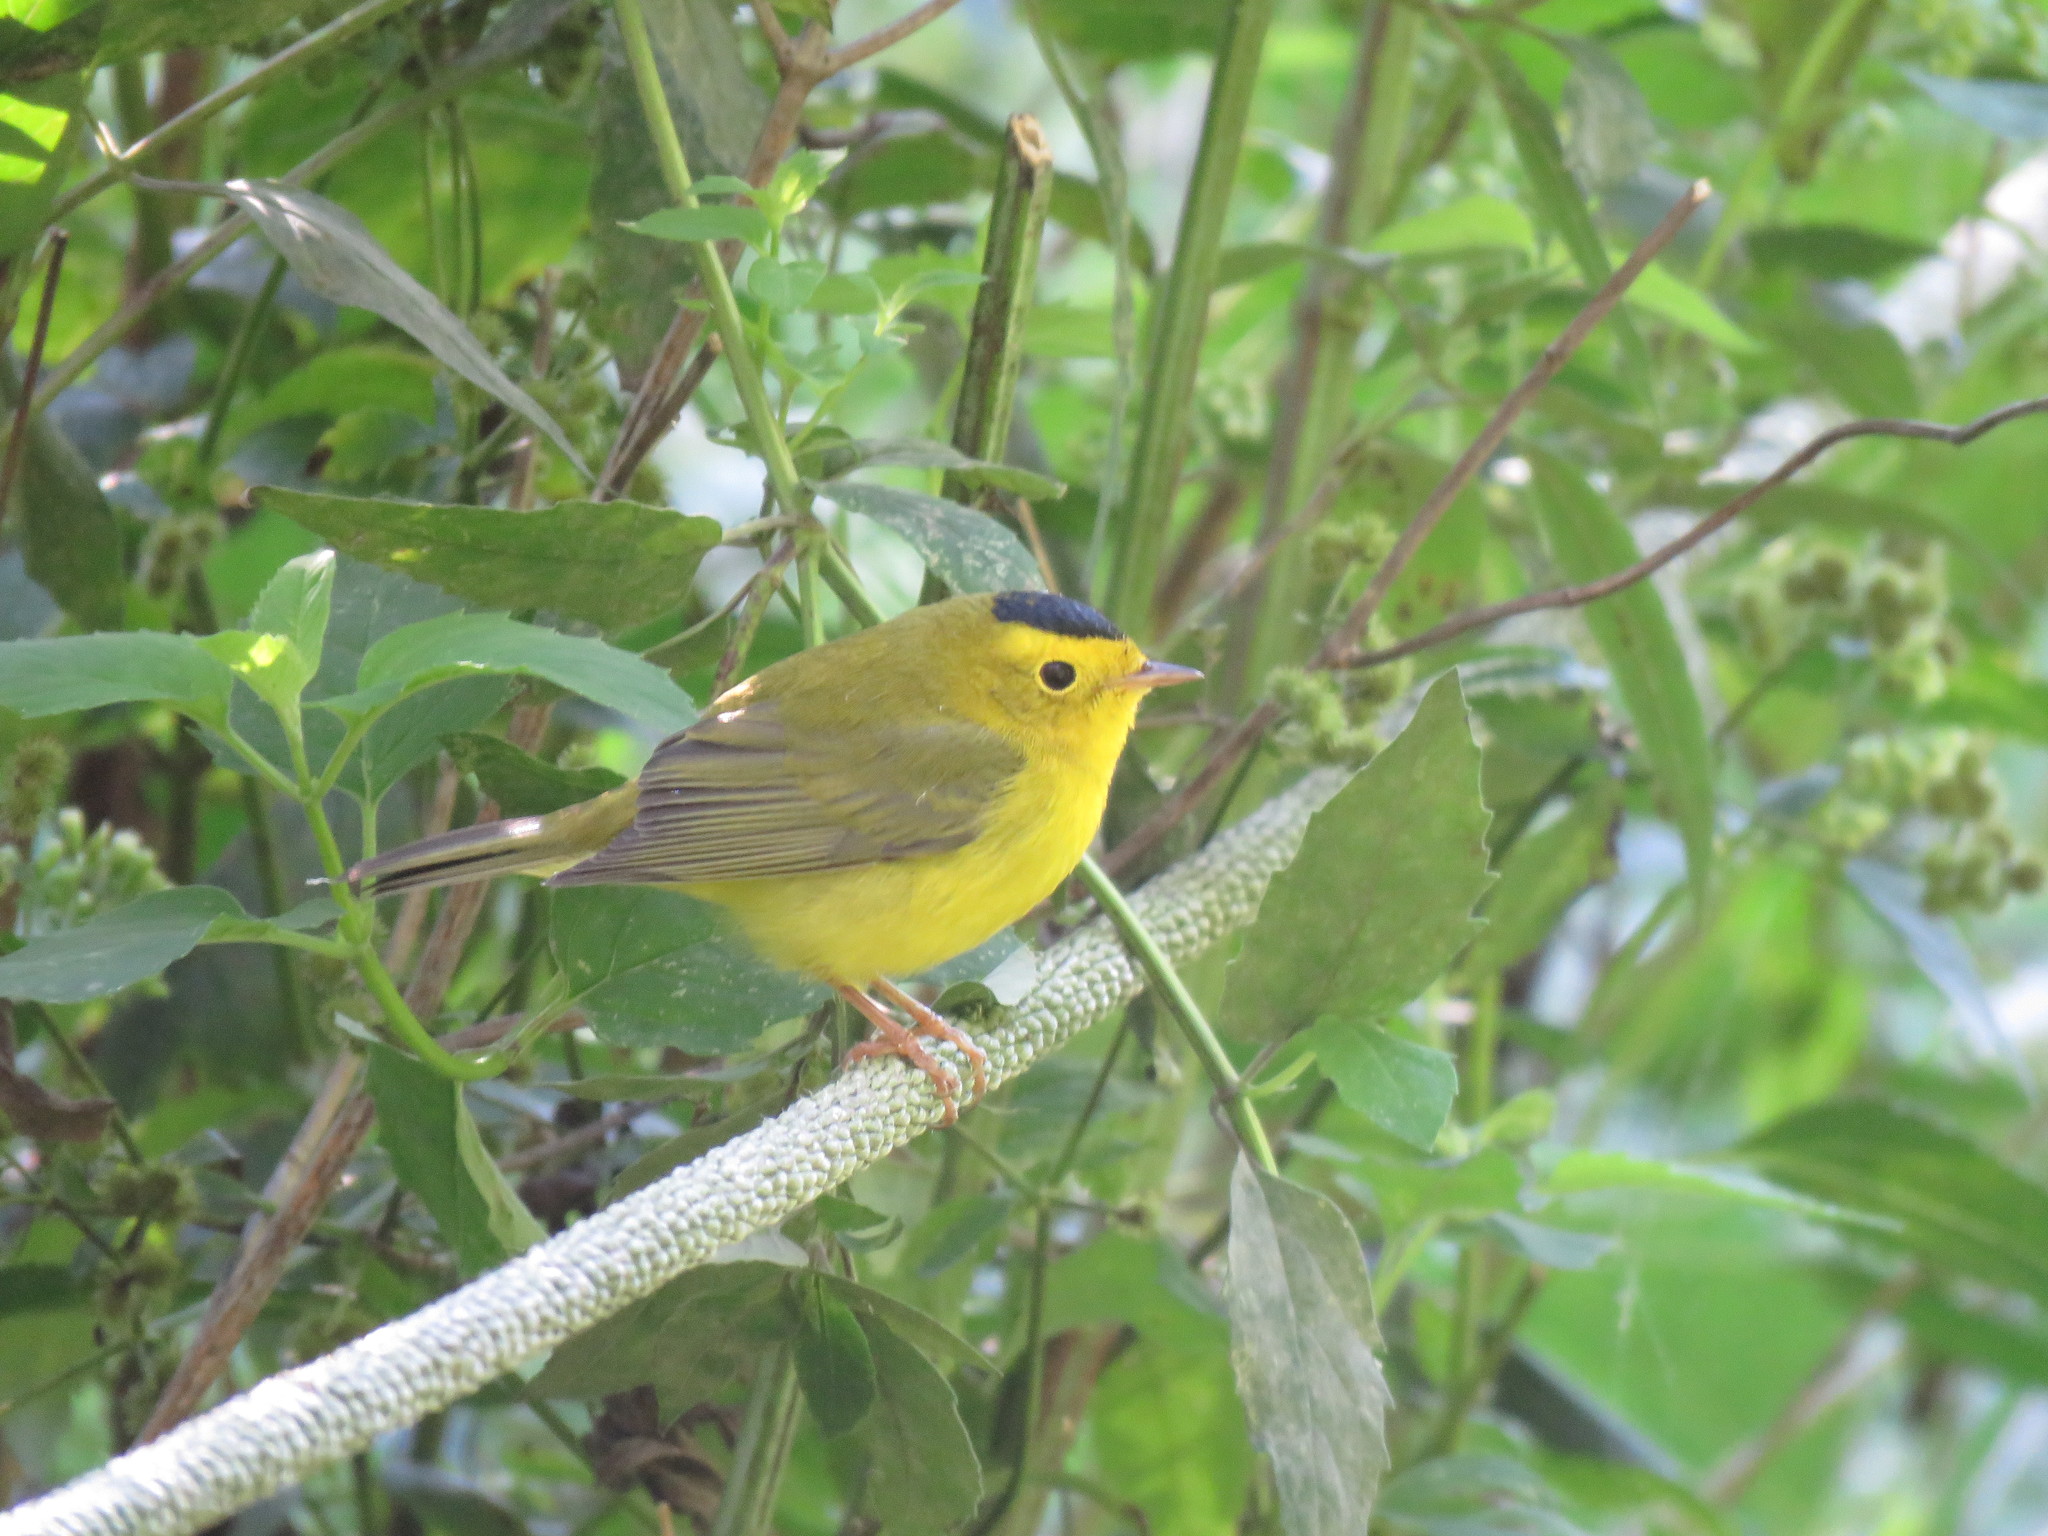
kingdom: Animalia
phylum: Chordata
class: Aves
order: Passeriformes
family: Parulidae
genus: Cardellina
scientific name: Cardellina pusilla
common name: Wilson's warbler
